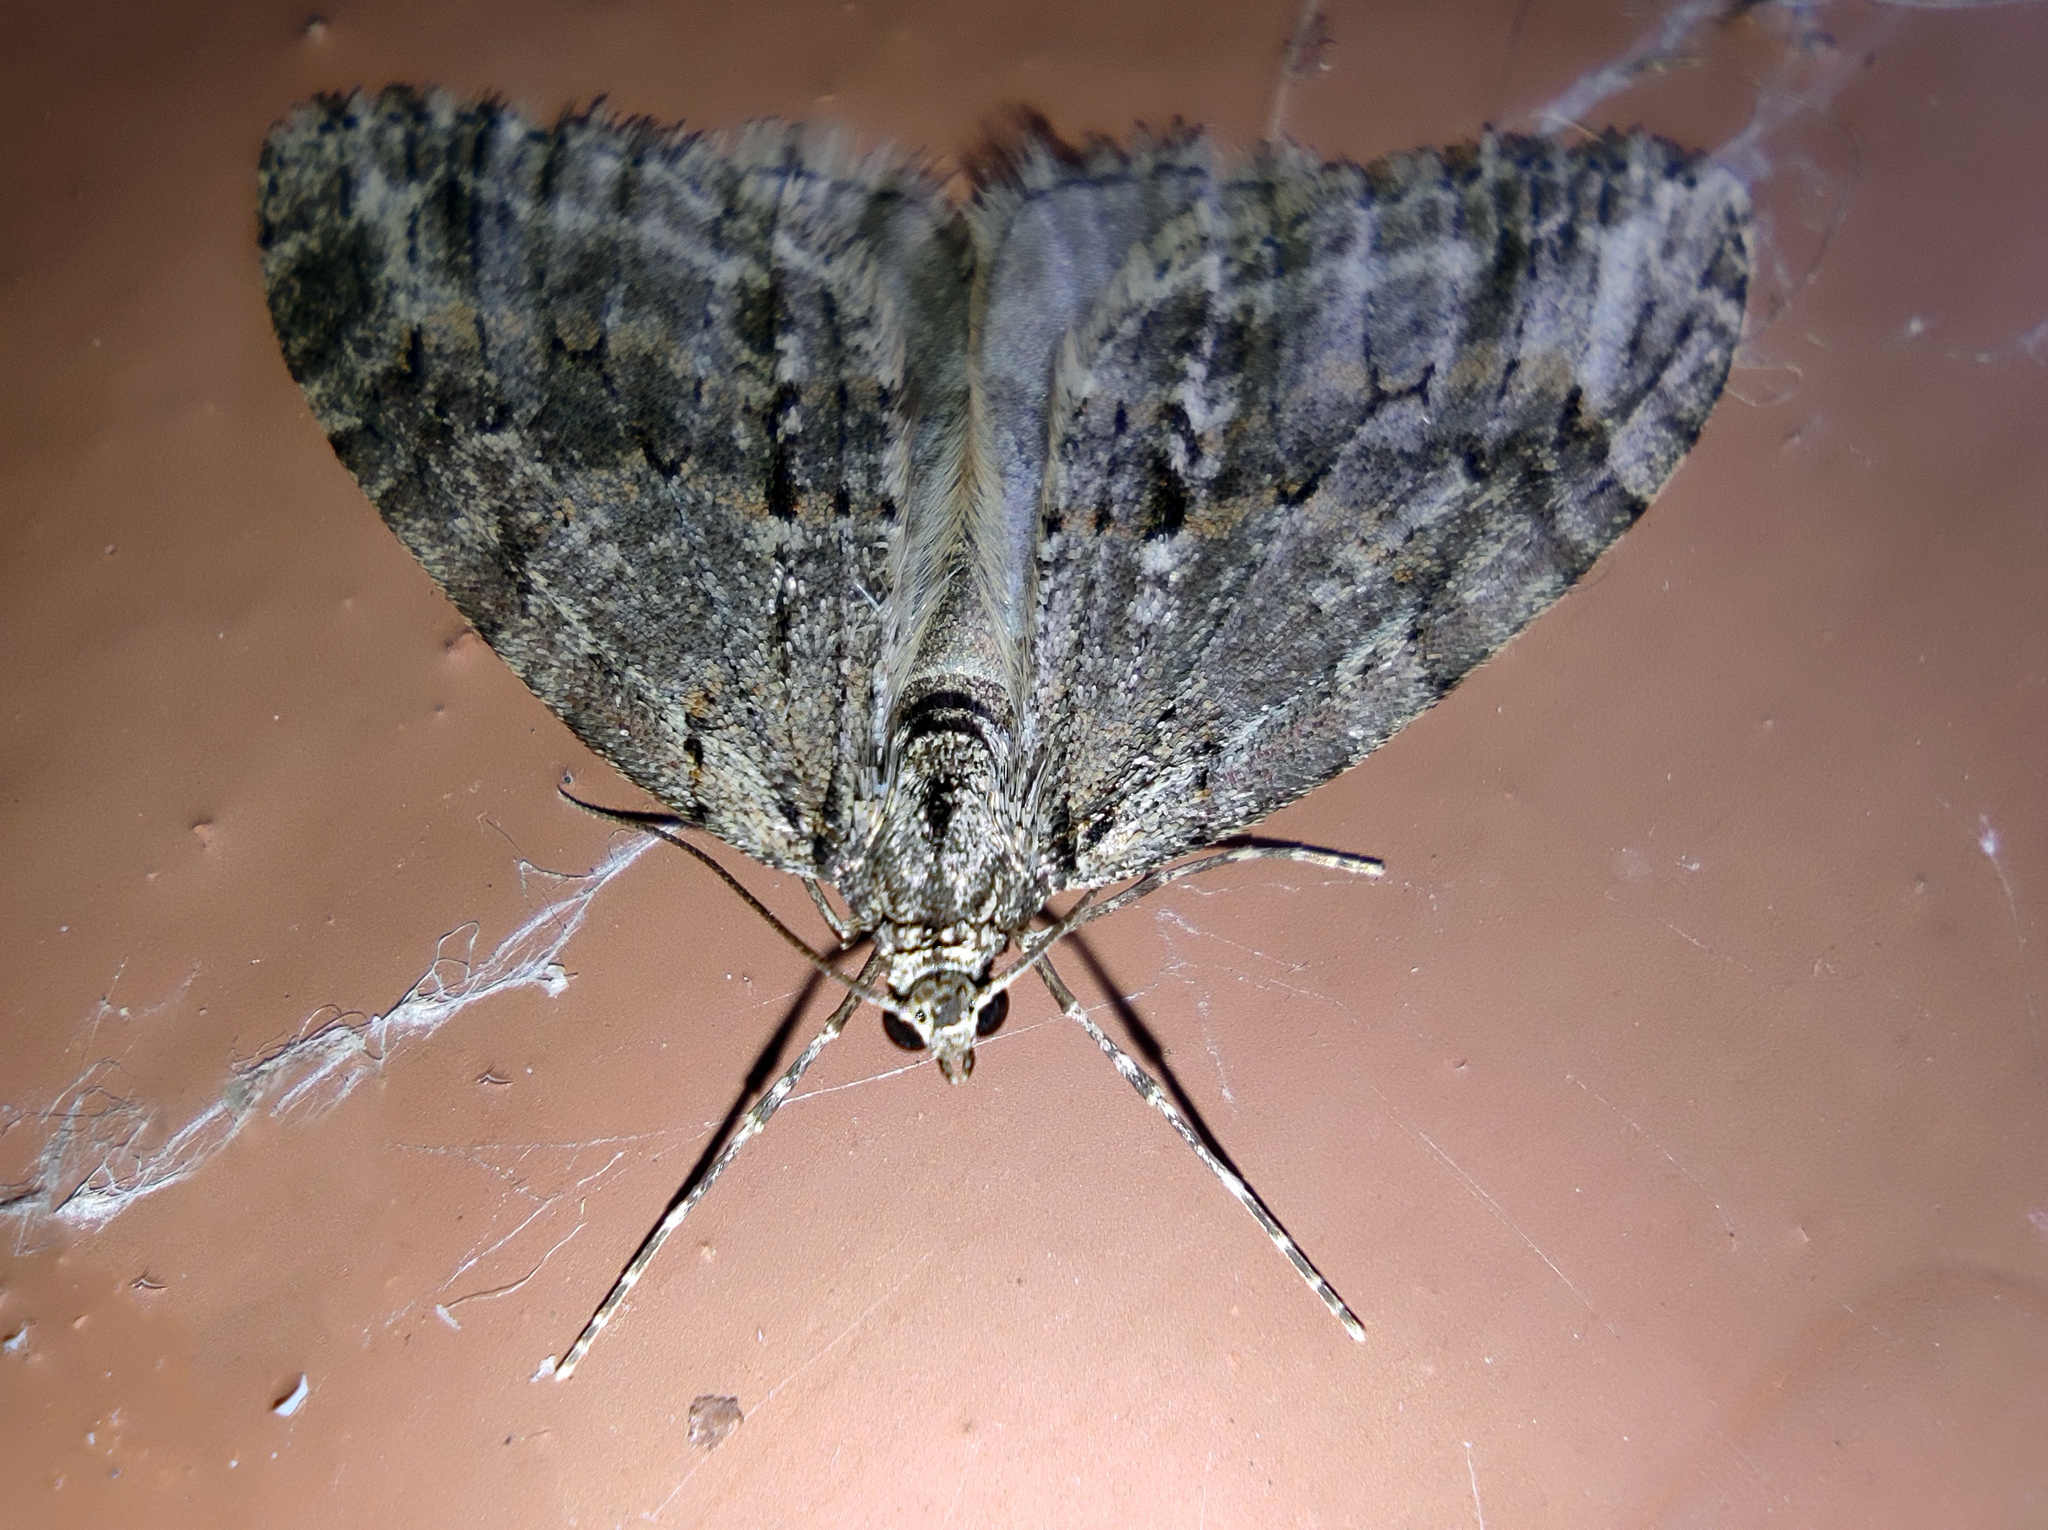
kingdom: Animalia
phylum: Arthropoda
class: Insecta
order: Lepidoptera
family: Geometridae
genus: Trichopteryx
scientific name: Trichopteryx polycommata
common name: Barred tooth-striped
